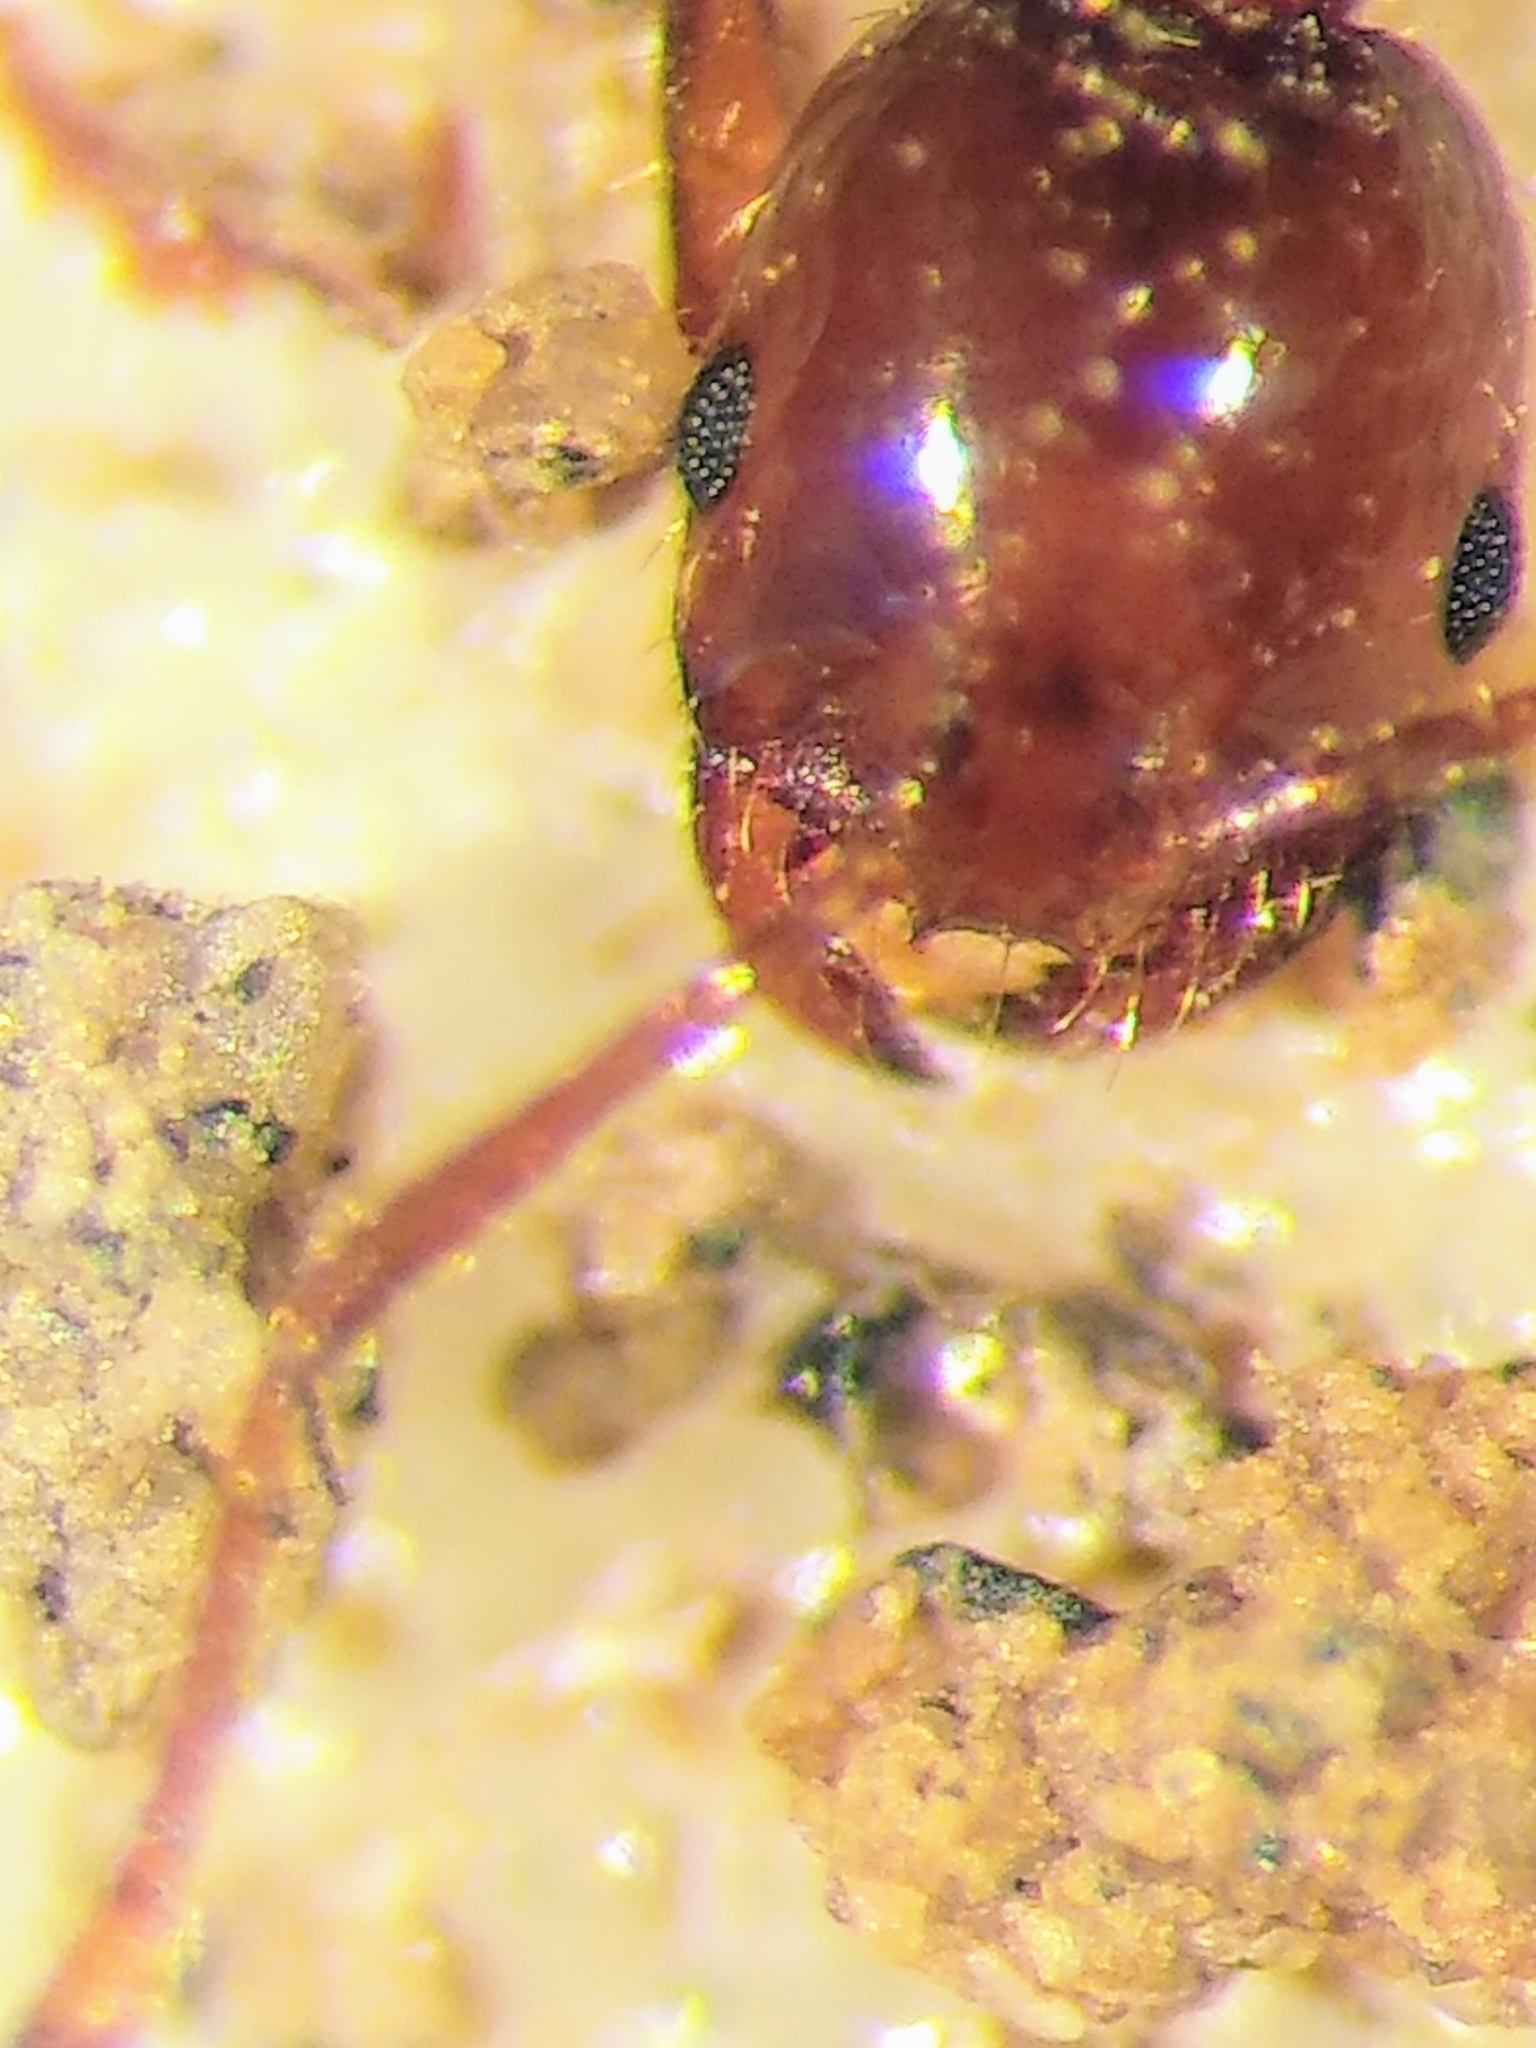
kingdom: Animalia
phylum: Arthropoda
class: Insecta
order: Hymenoptera
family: Formicidae
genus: Solenopsis
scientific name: Solenopsis invicta
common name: Red imported fire ant
